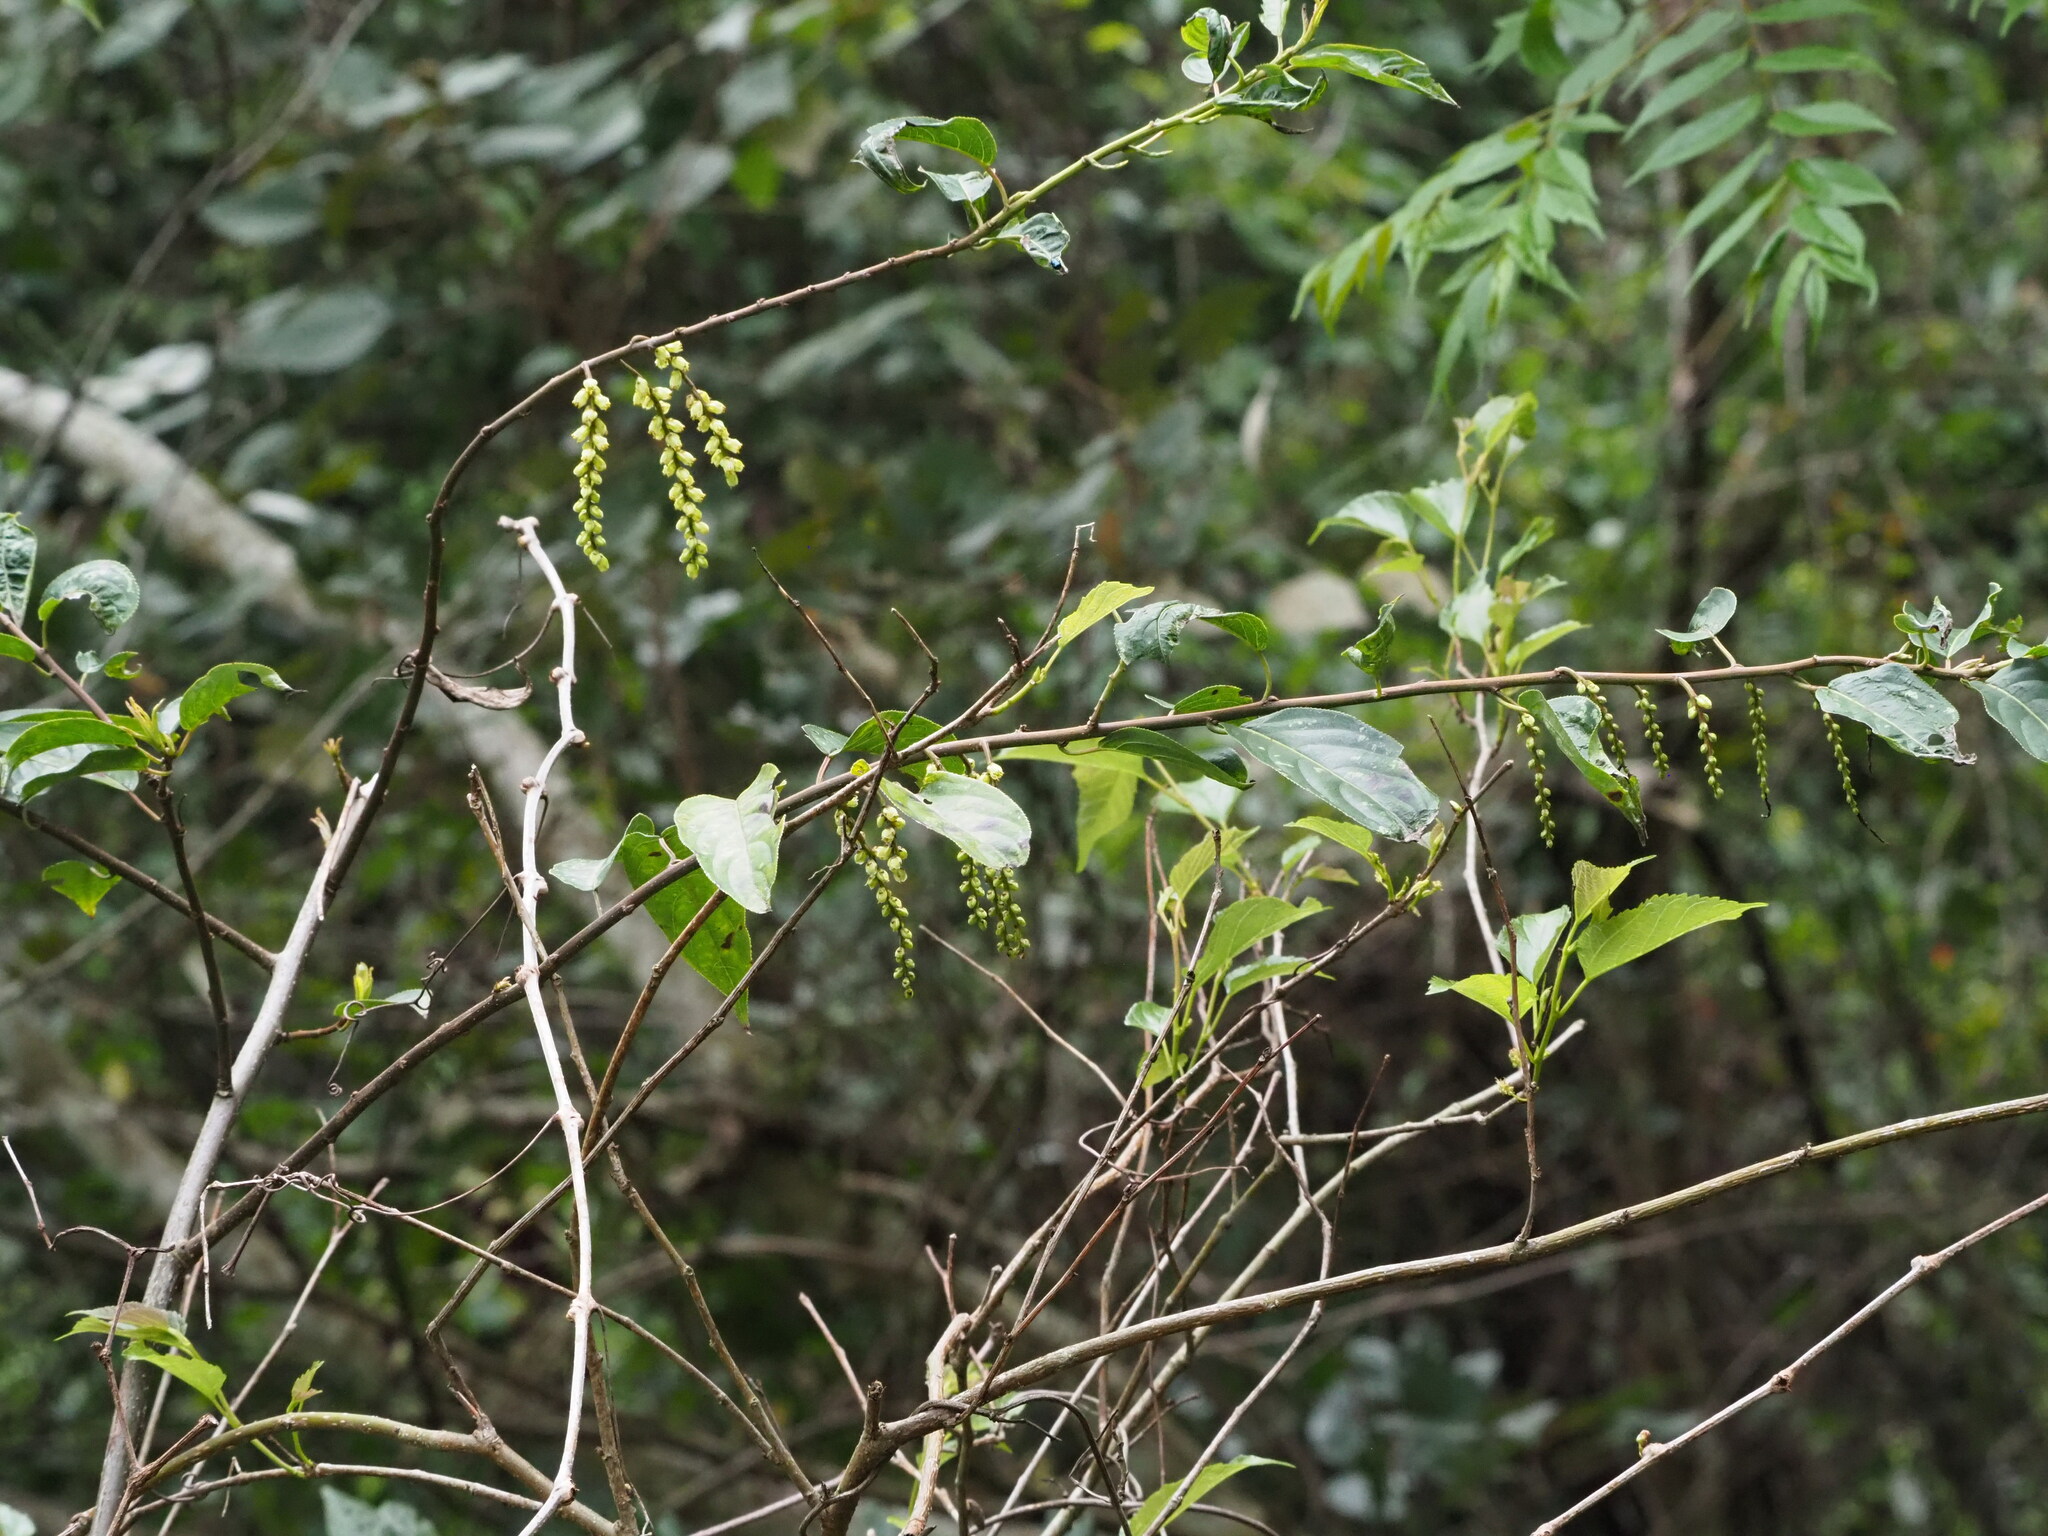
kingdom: Plantae
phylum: Tracheophyta
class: Magnoliopsida
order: Crossosomatales
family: Stachyuraceae
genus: Stachyurus
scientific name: Stachyurus himalaicus
